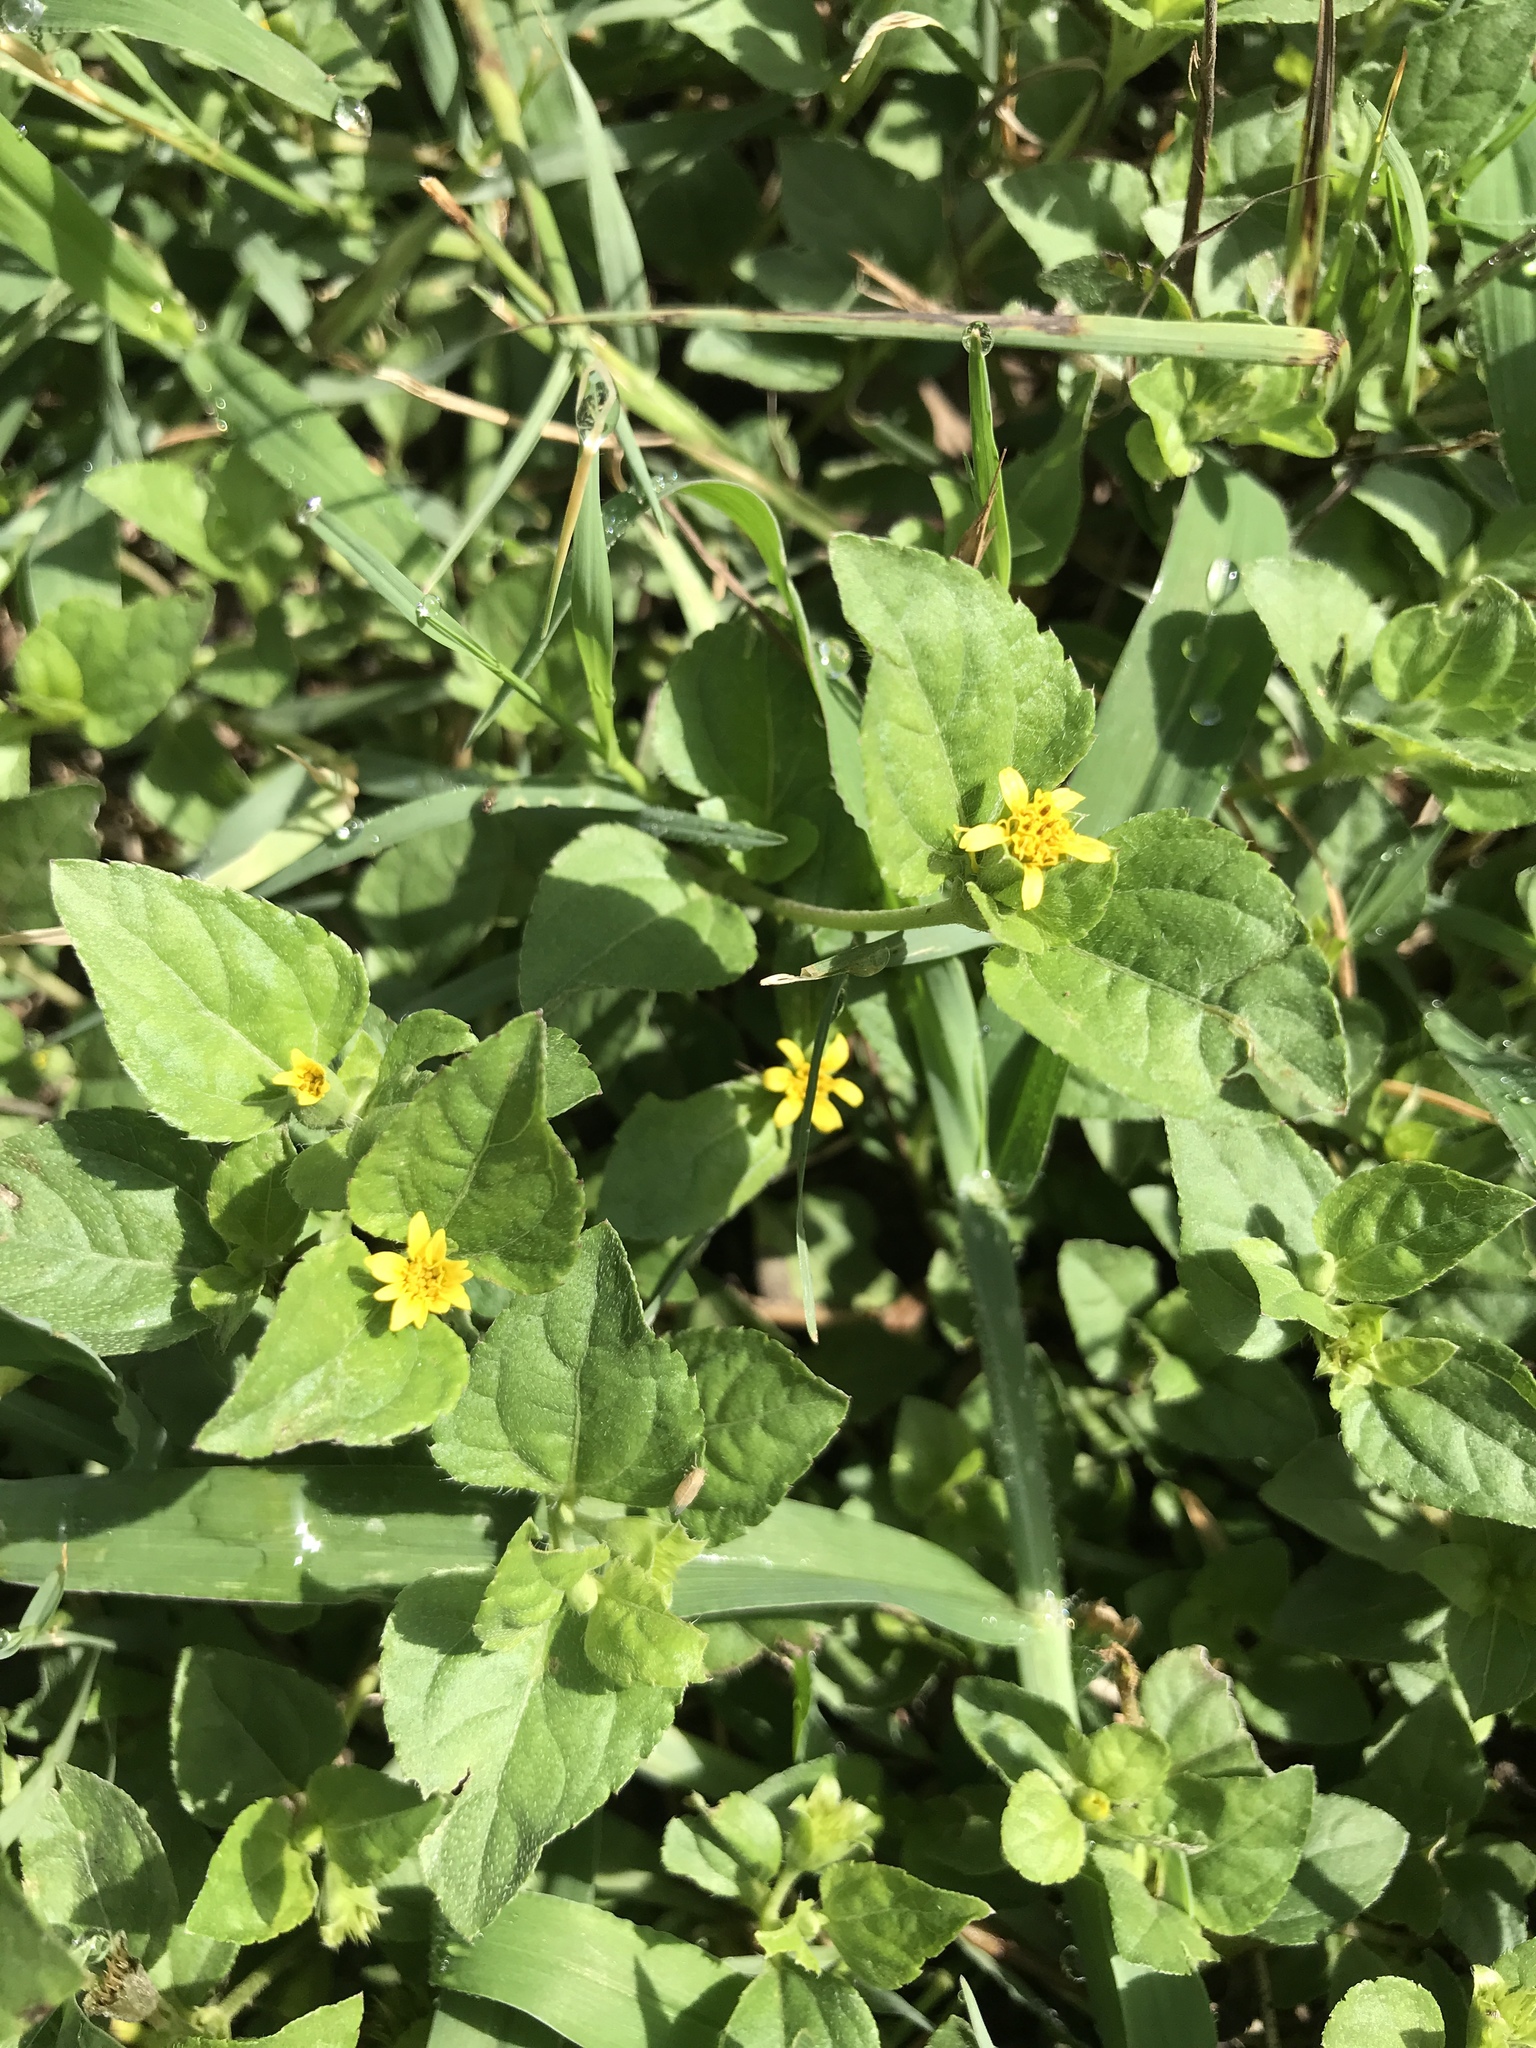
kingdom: Plantae
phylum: Tracheophyta
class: Magnoliopsida
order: Asterales
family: Asteraceae
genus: Calyptocarpus
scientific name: Calyptocarpus vialis
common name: Straggler daisy
